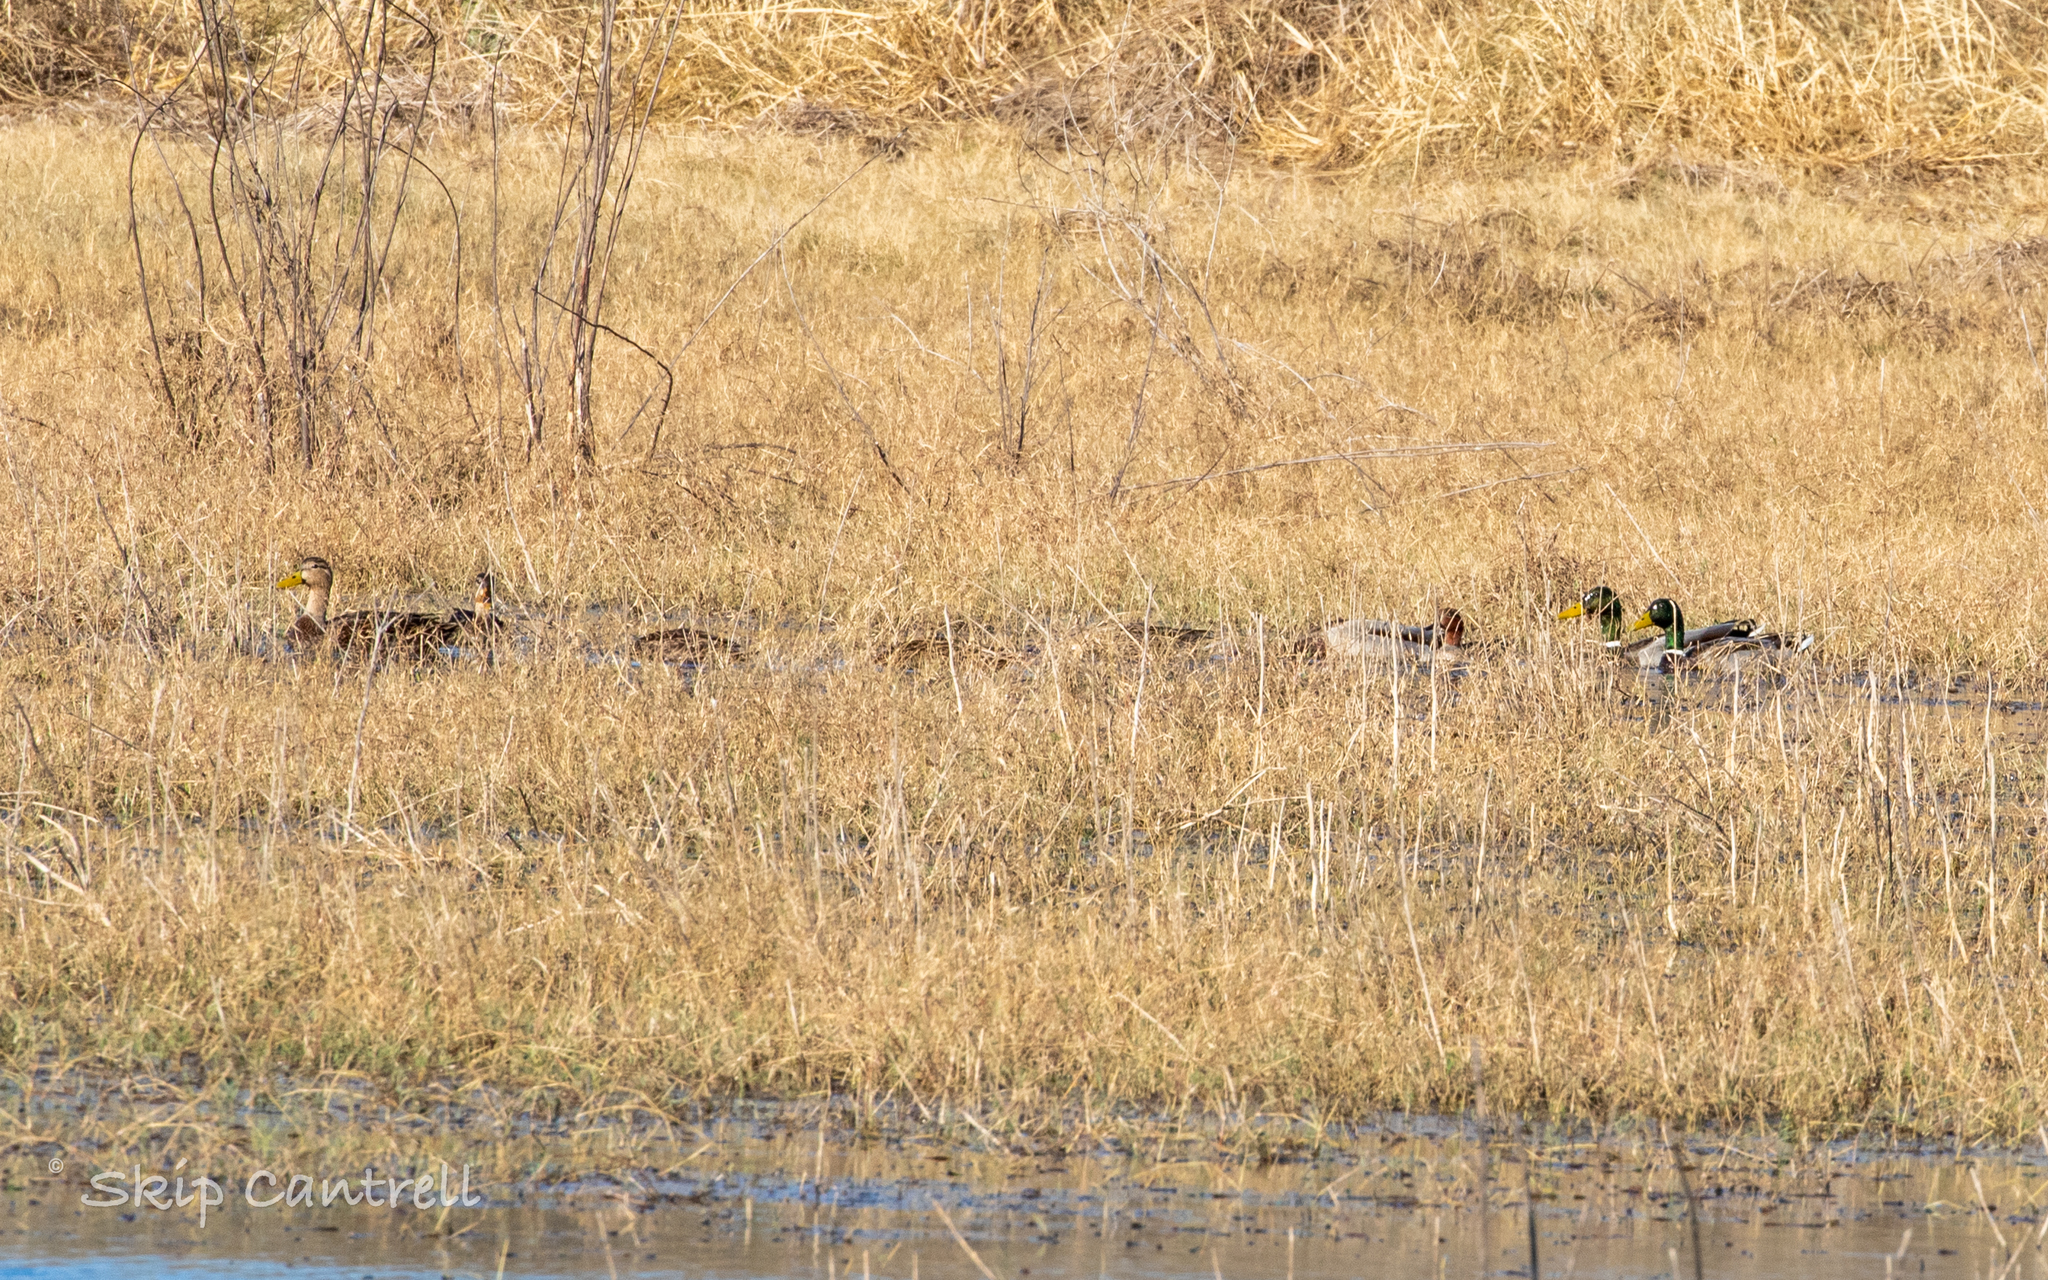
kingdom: Animalia
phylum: Chordata
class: Aves
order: Anseriformes
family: Anatidae
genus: Anas
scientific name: Anas platyrhynchos
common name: Mallard
